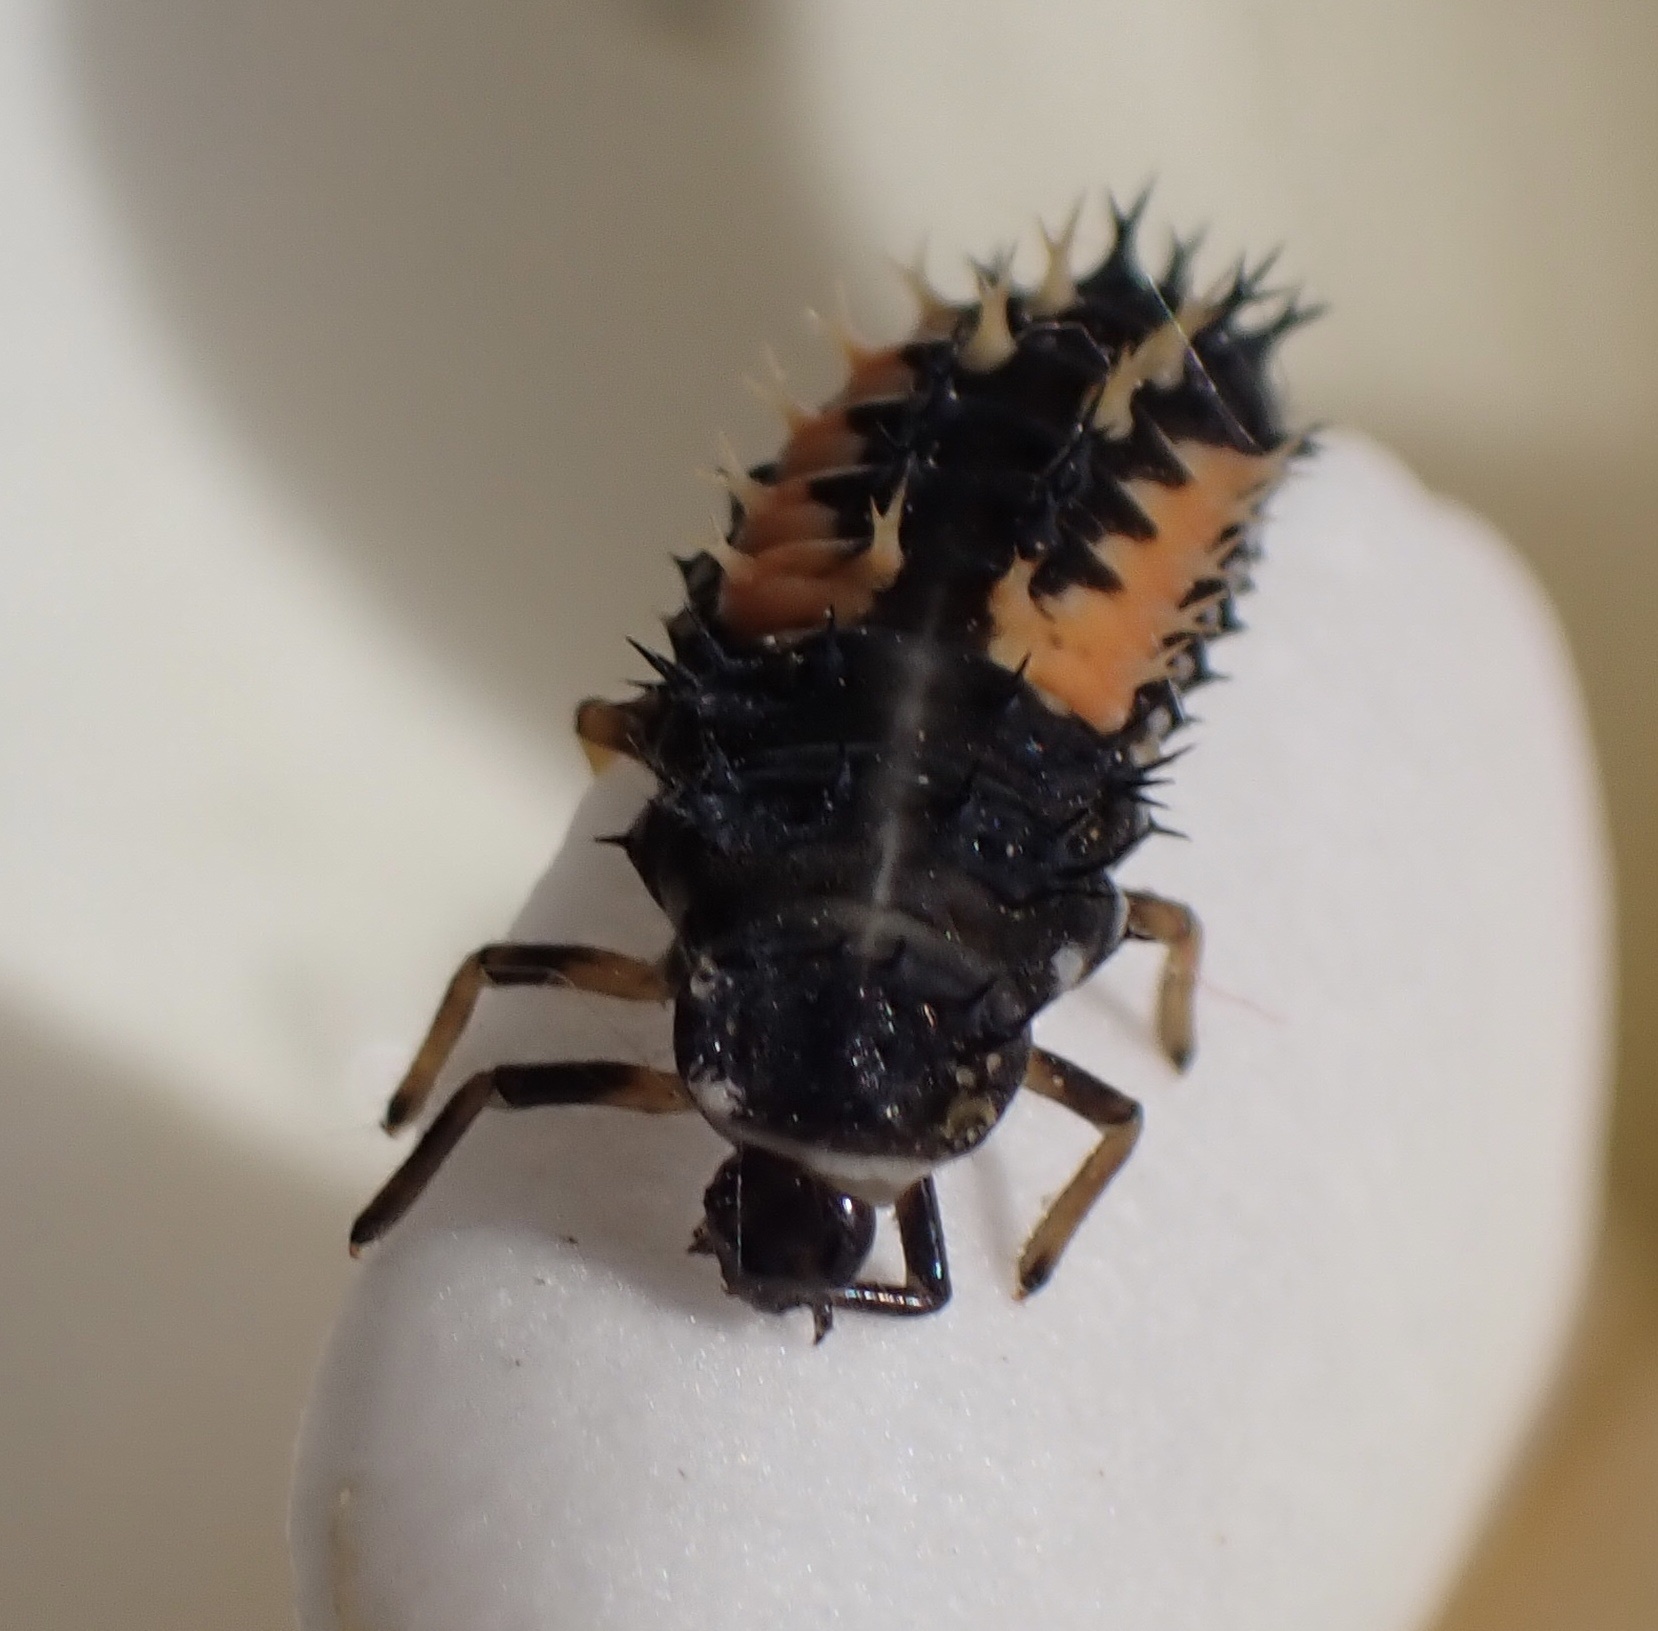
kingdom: Animalia
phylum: Arthropoda
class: Insecta
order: Coleoptera
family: Coccinellidae
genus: Harmonia
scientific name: Harmonia axyridis
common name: Harlequin ladybird
